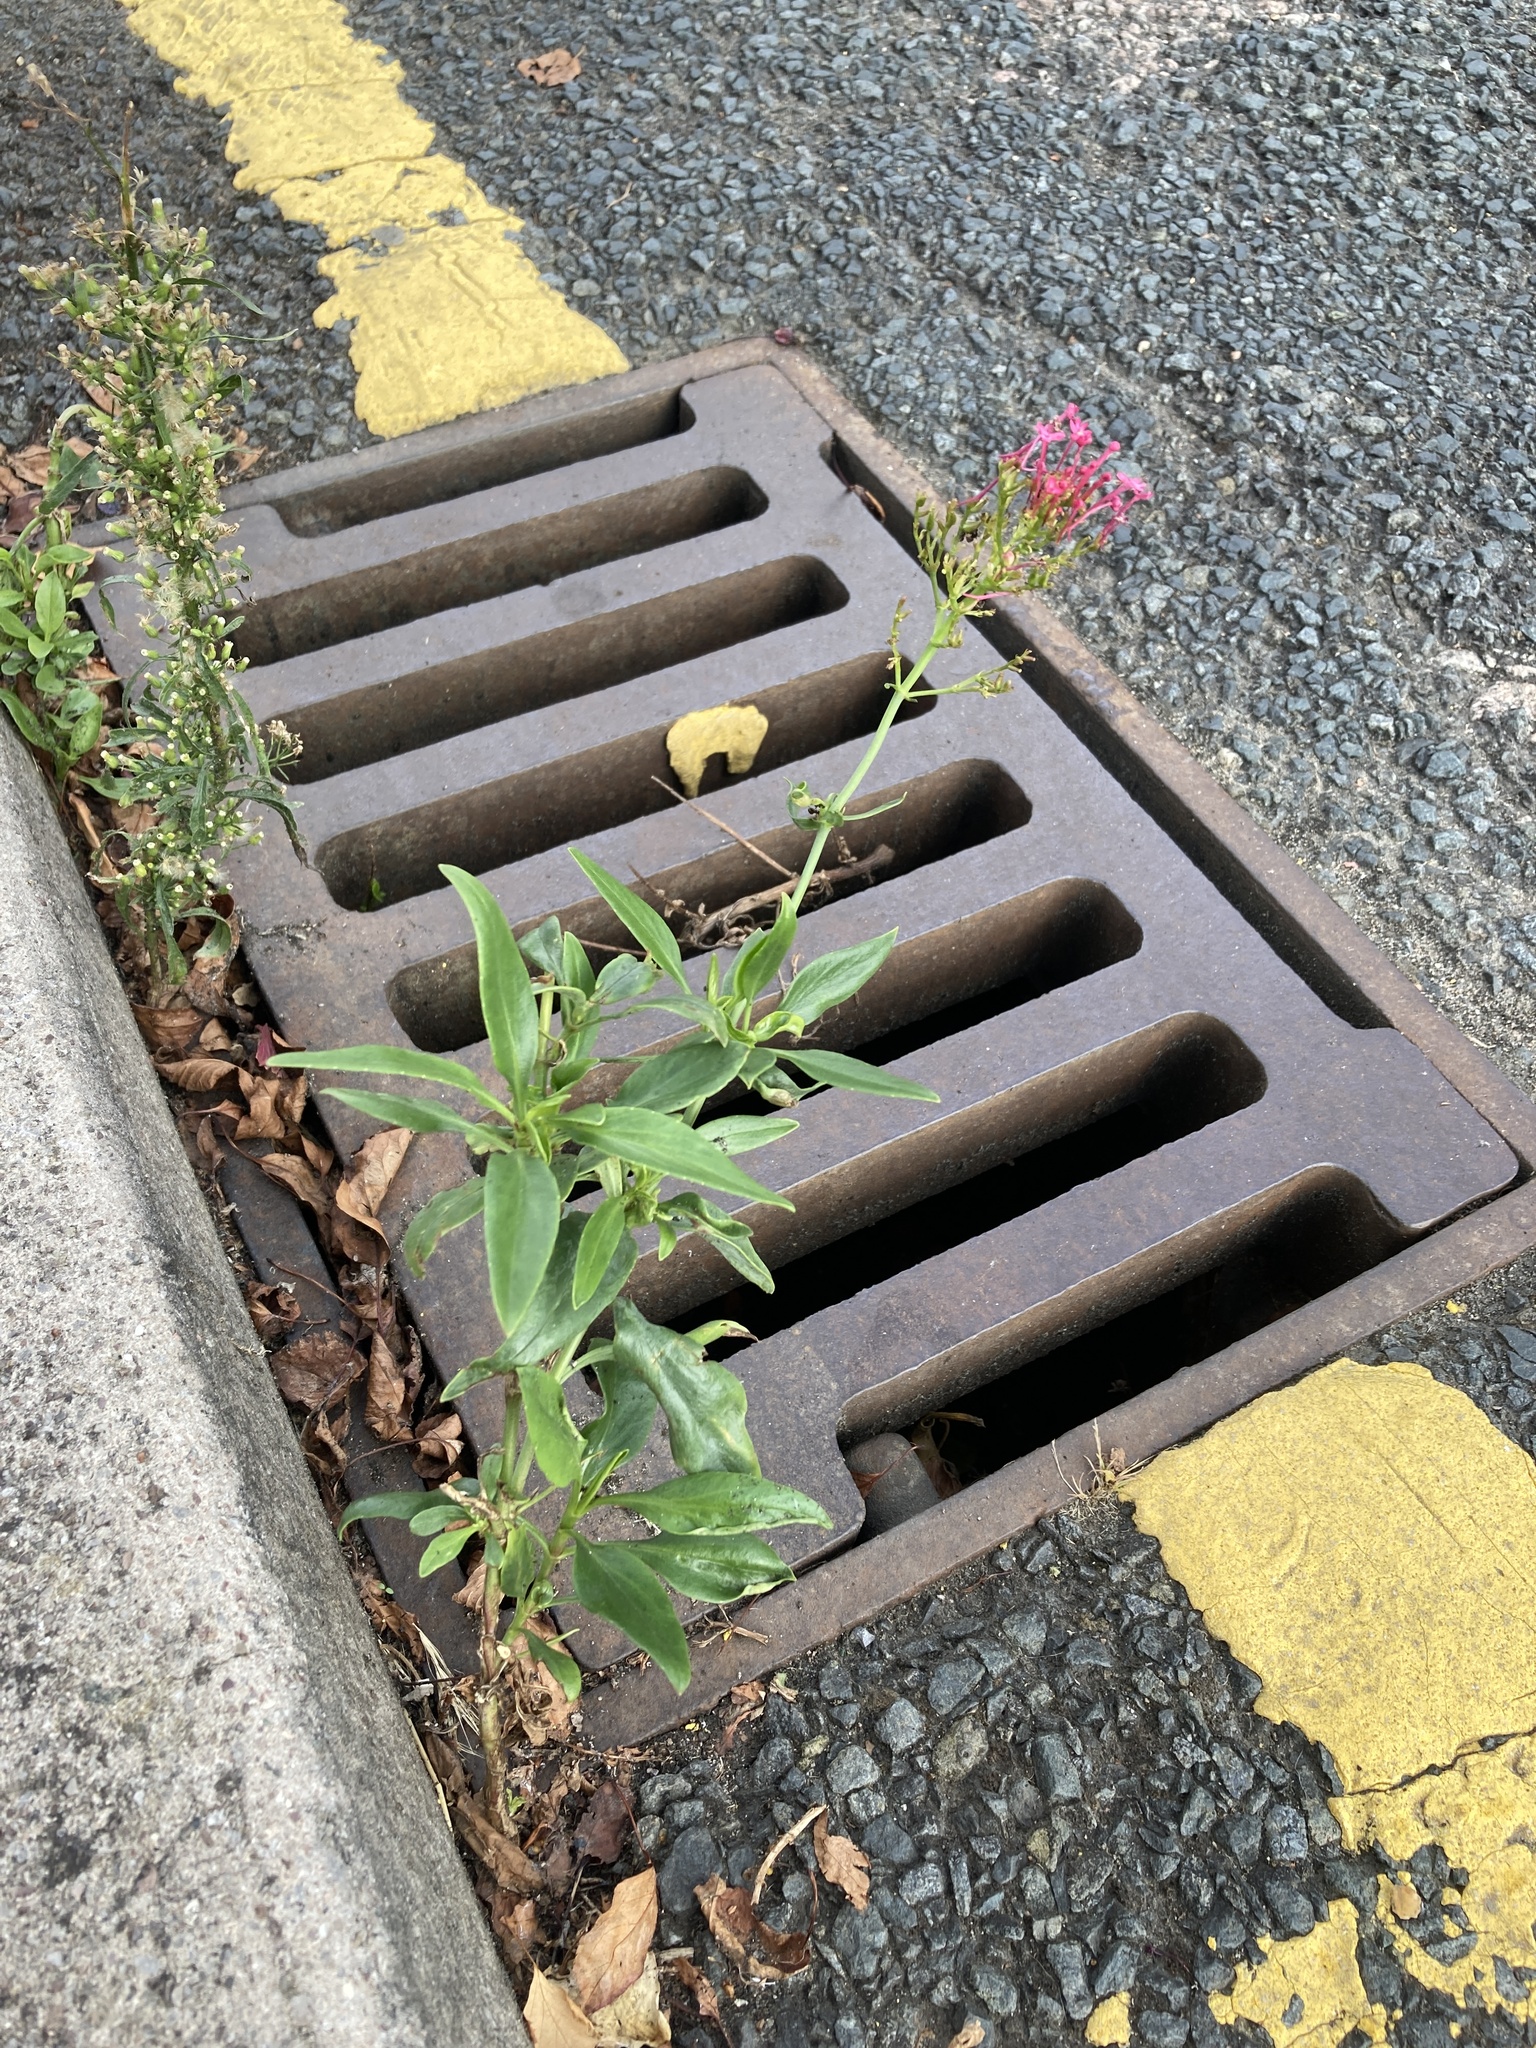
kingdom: Plantae
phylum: Tracheophyta
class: Magnoliopsida
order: Dipsacales
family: Caprifoliaceae
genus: Centranthus
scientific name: Centranthus ruber
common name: Red valerian
